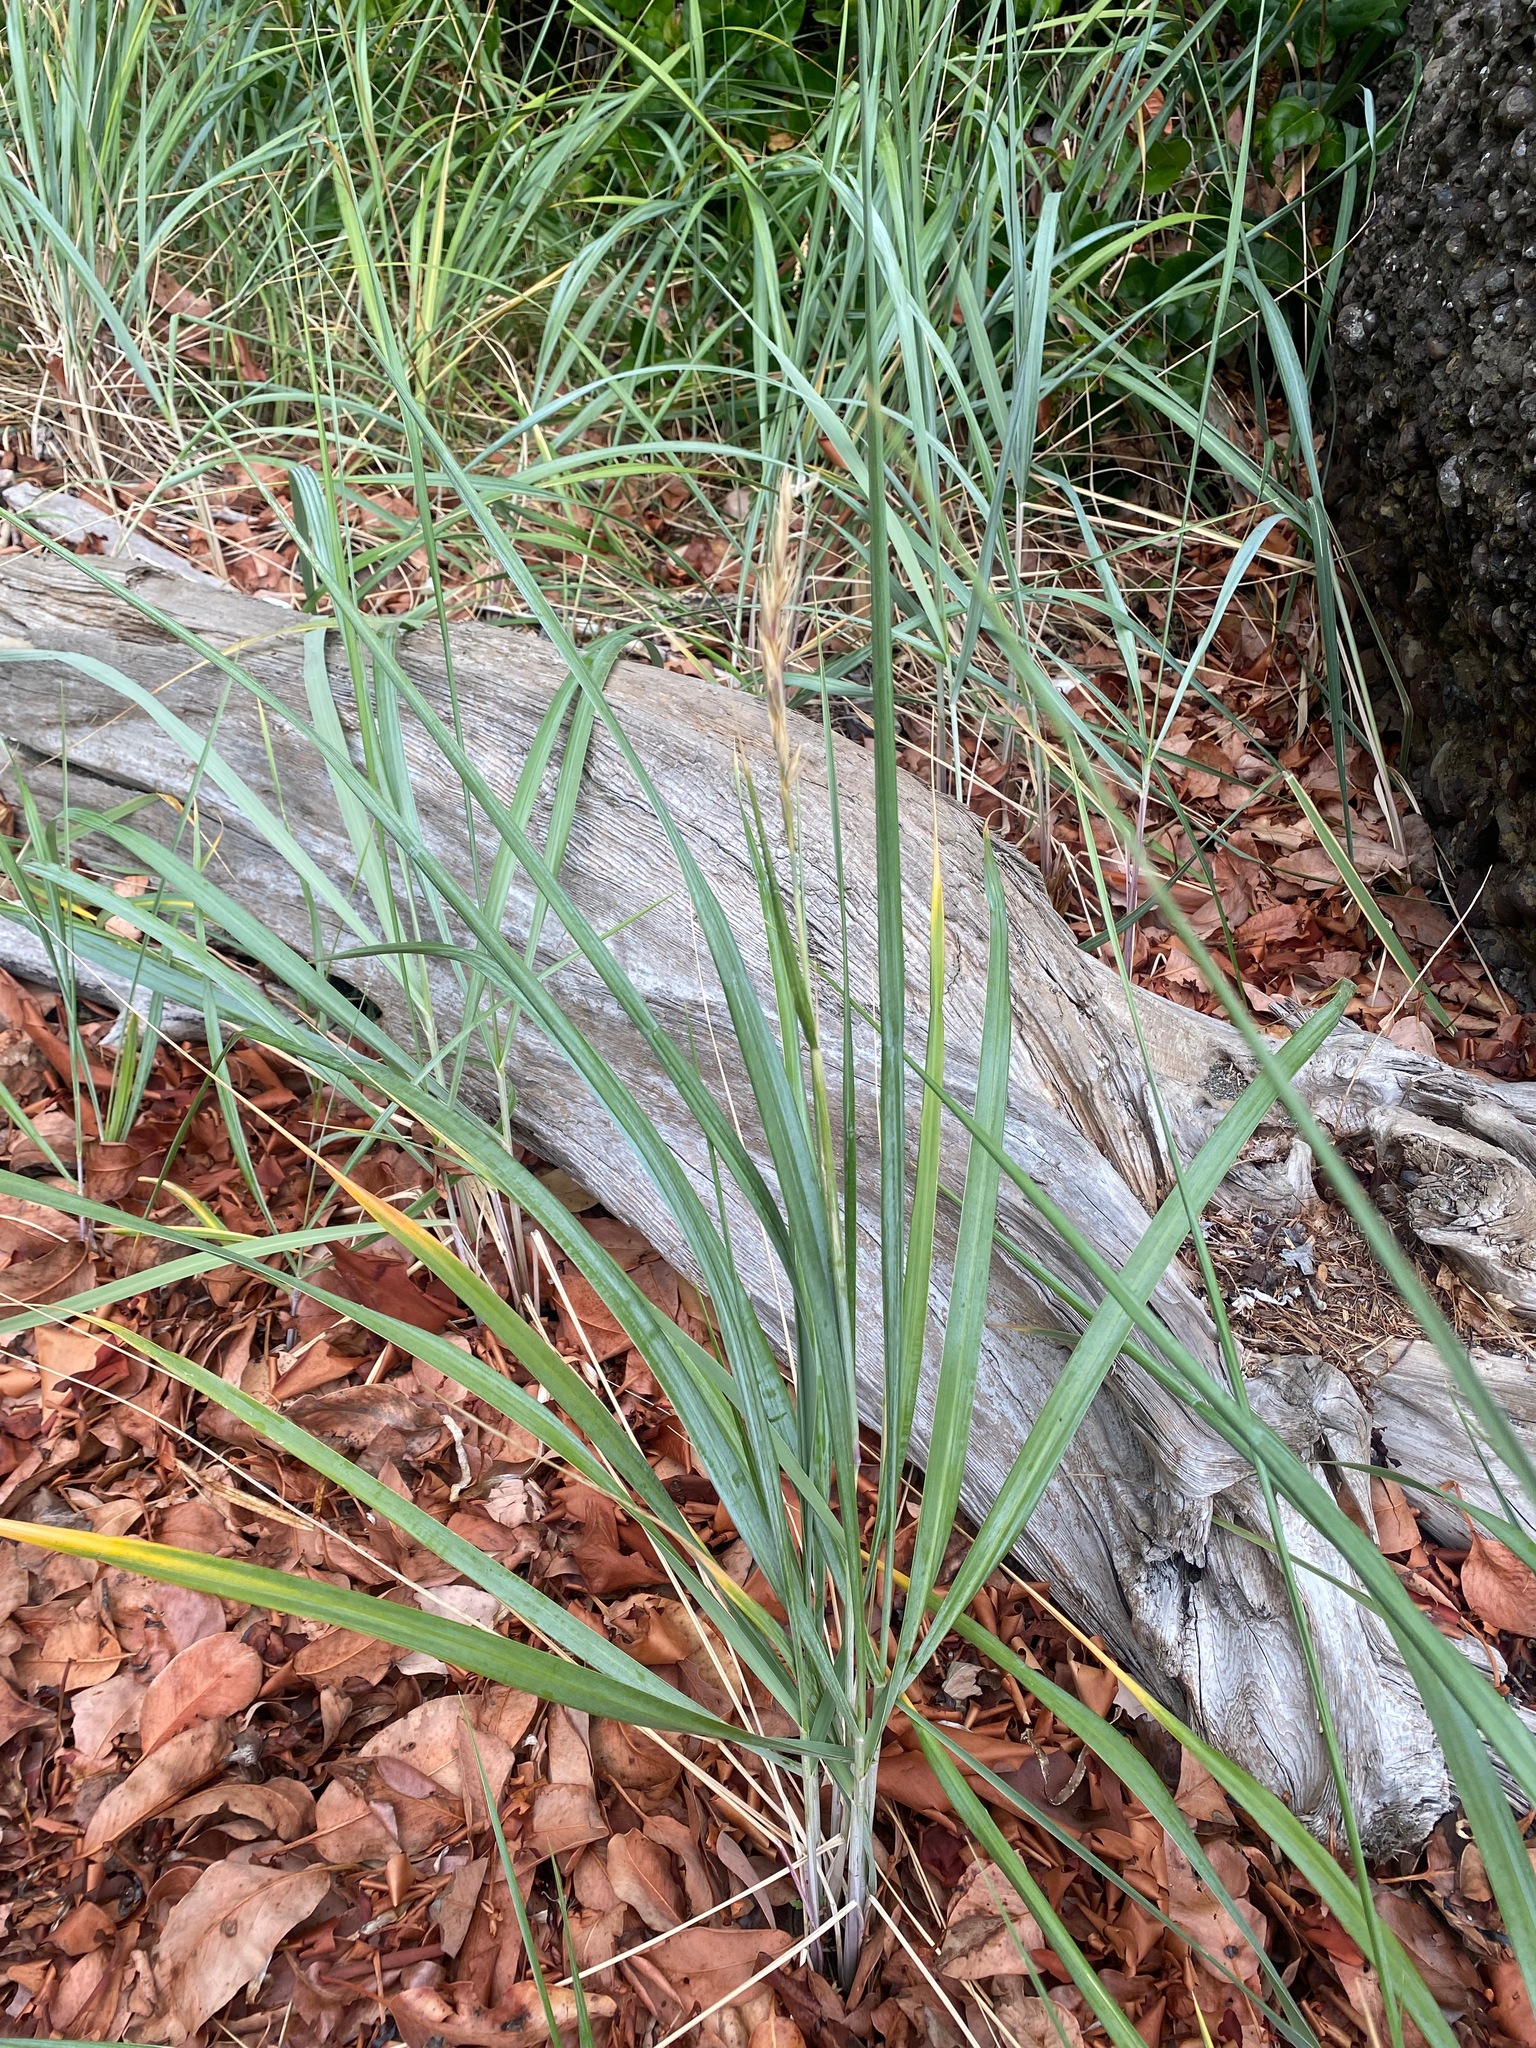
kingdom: Plantae
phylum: Tracheophyta
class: Liliopsida
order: Poales
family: Poaceae
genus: Leymus
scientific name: Leymus mollis
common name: American dune grass
